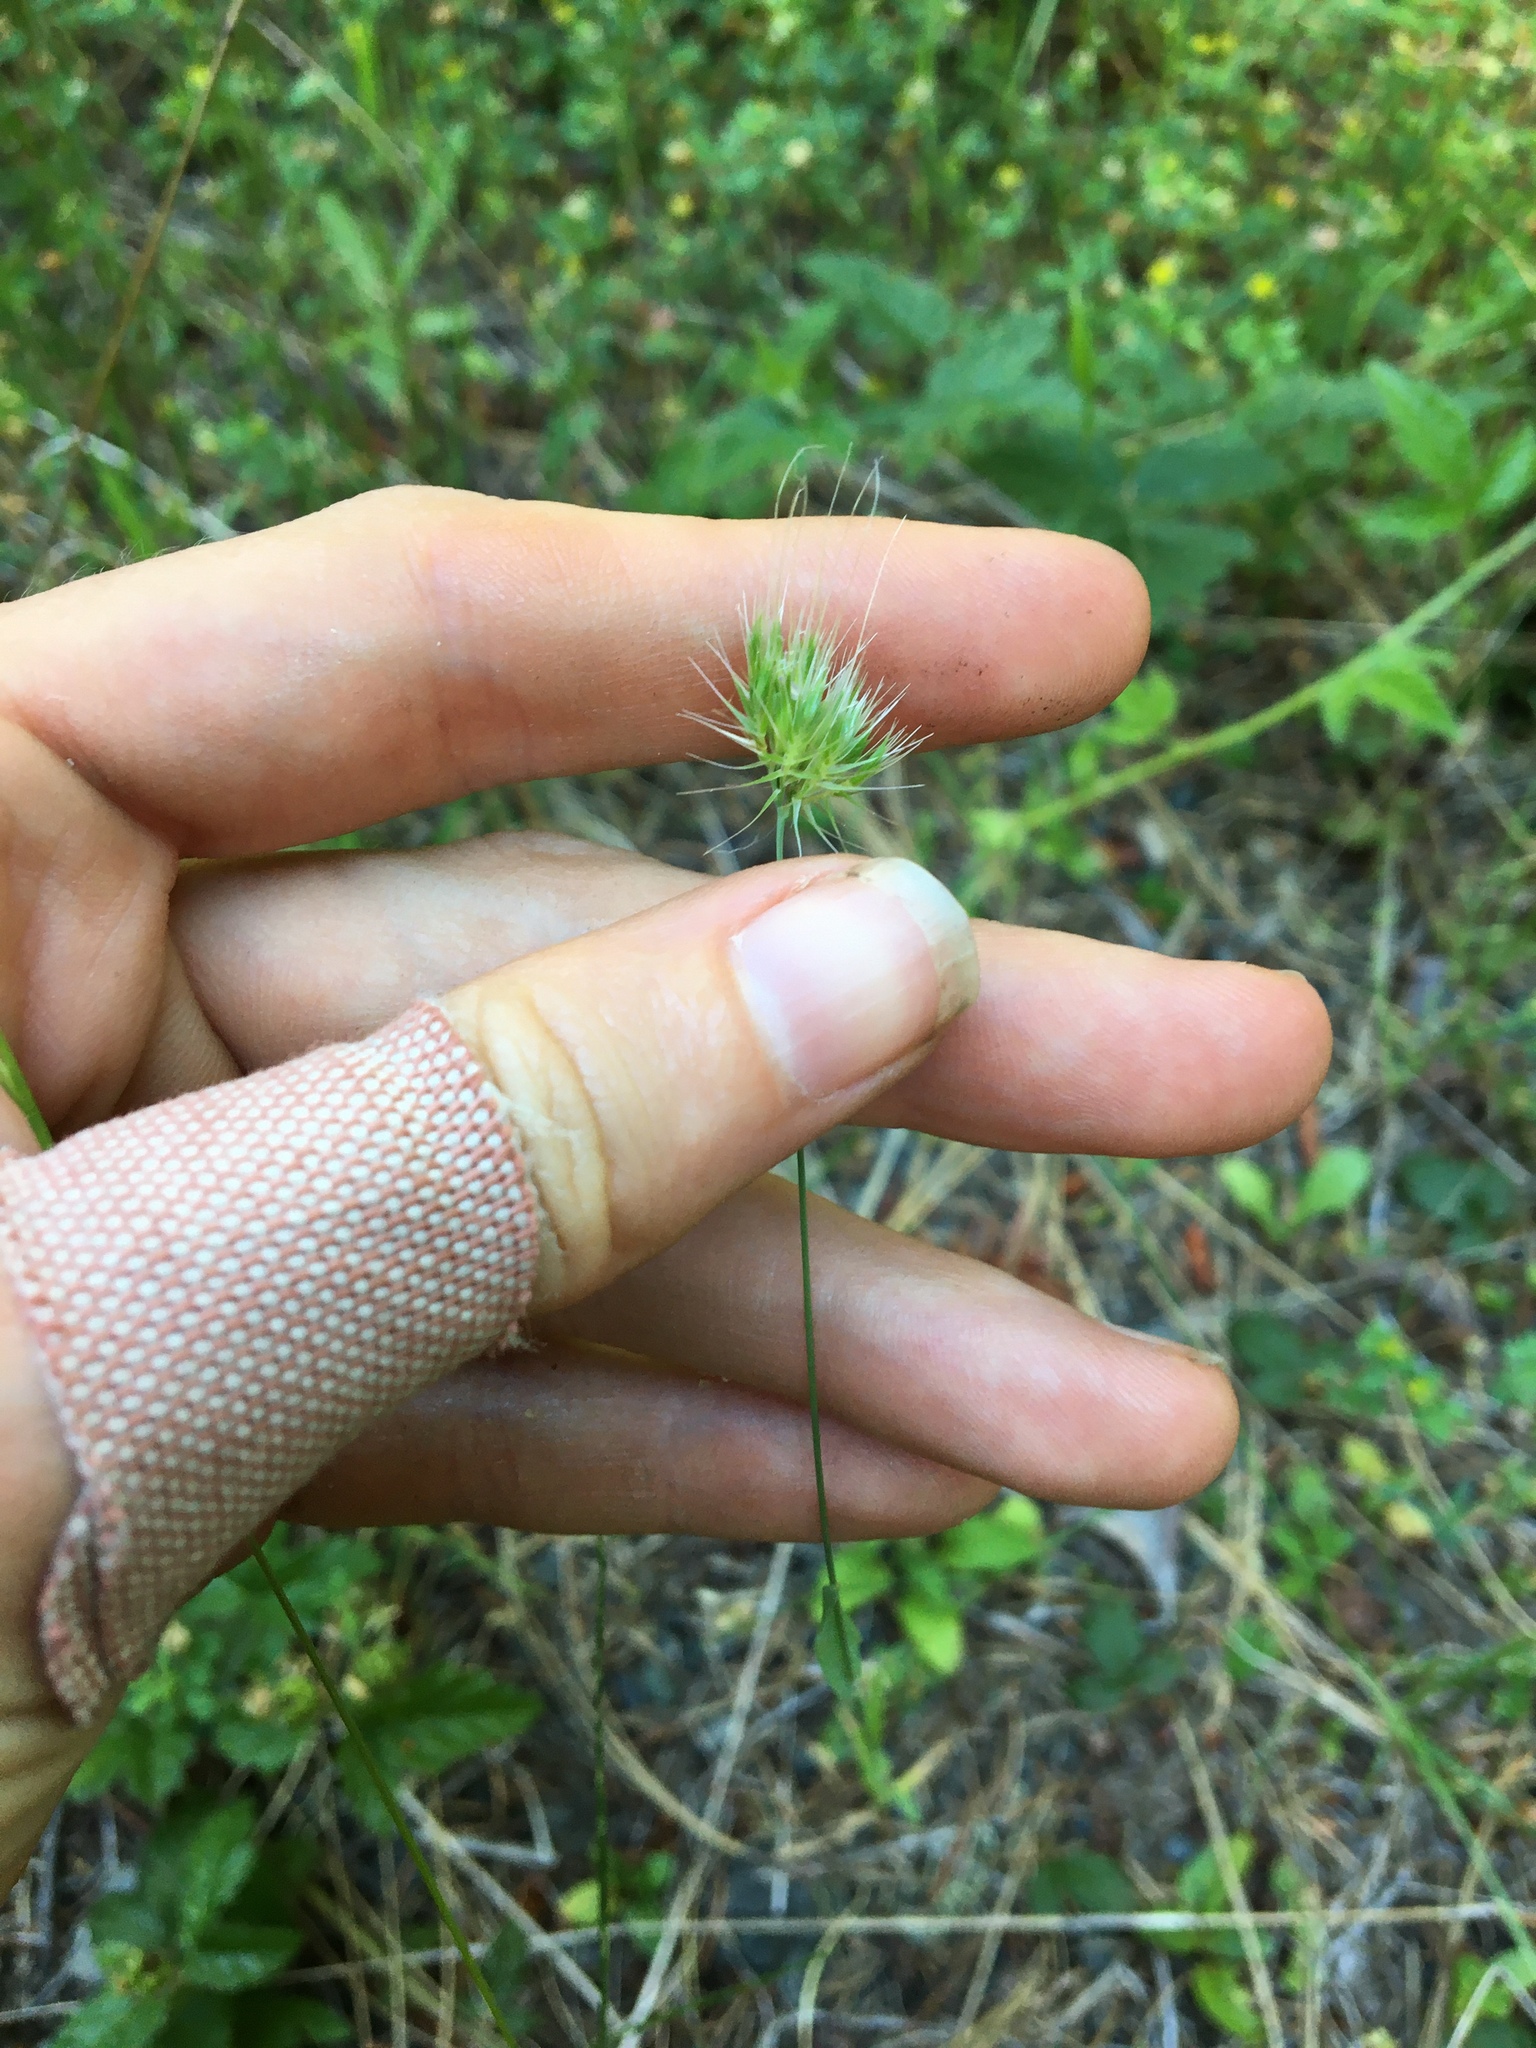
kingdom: Plantae
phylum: Tracheophyta
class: Liliopsida
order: Poales
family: Poaceae
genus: Cynosurus
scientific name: Cynosurus echinatus
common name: Rough dog's-tail
